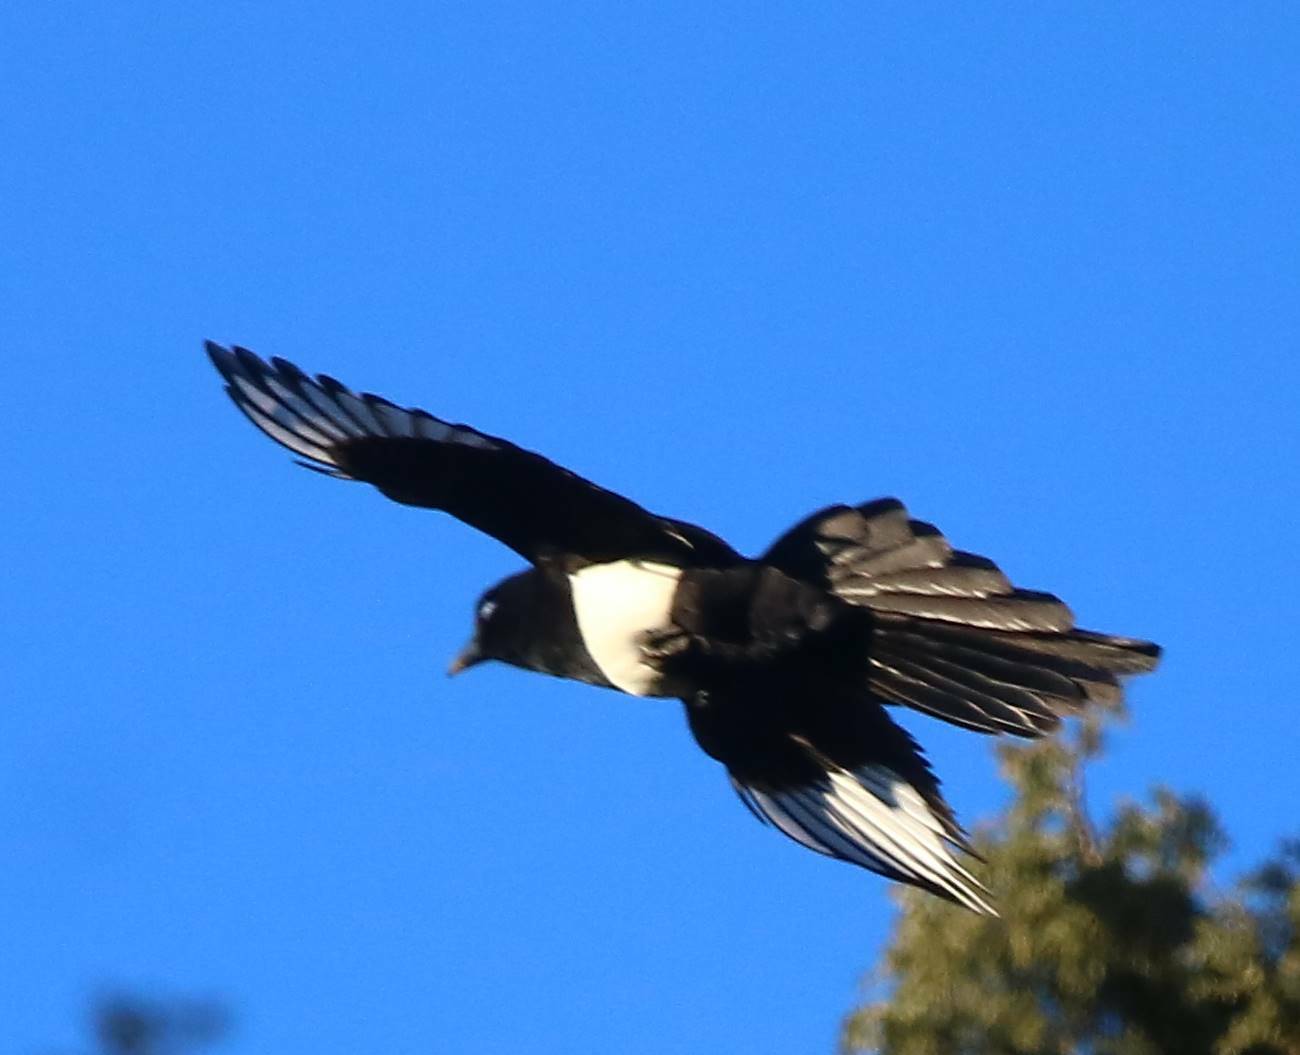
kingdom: Animalia
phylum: Chordata
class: Aves
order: Passeriformes
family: Corvidae
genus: Pica
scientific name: Pica mauritanica
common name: Maghreb magpie
